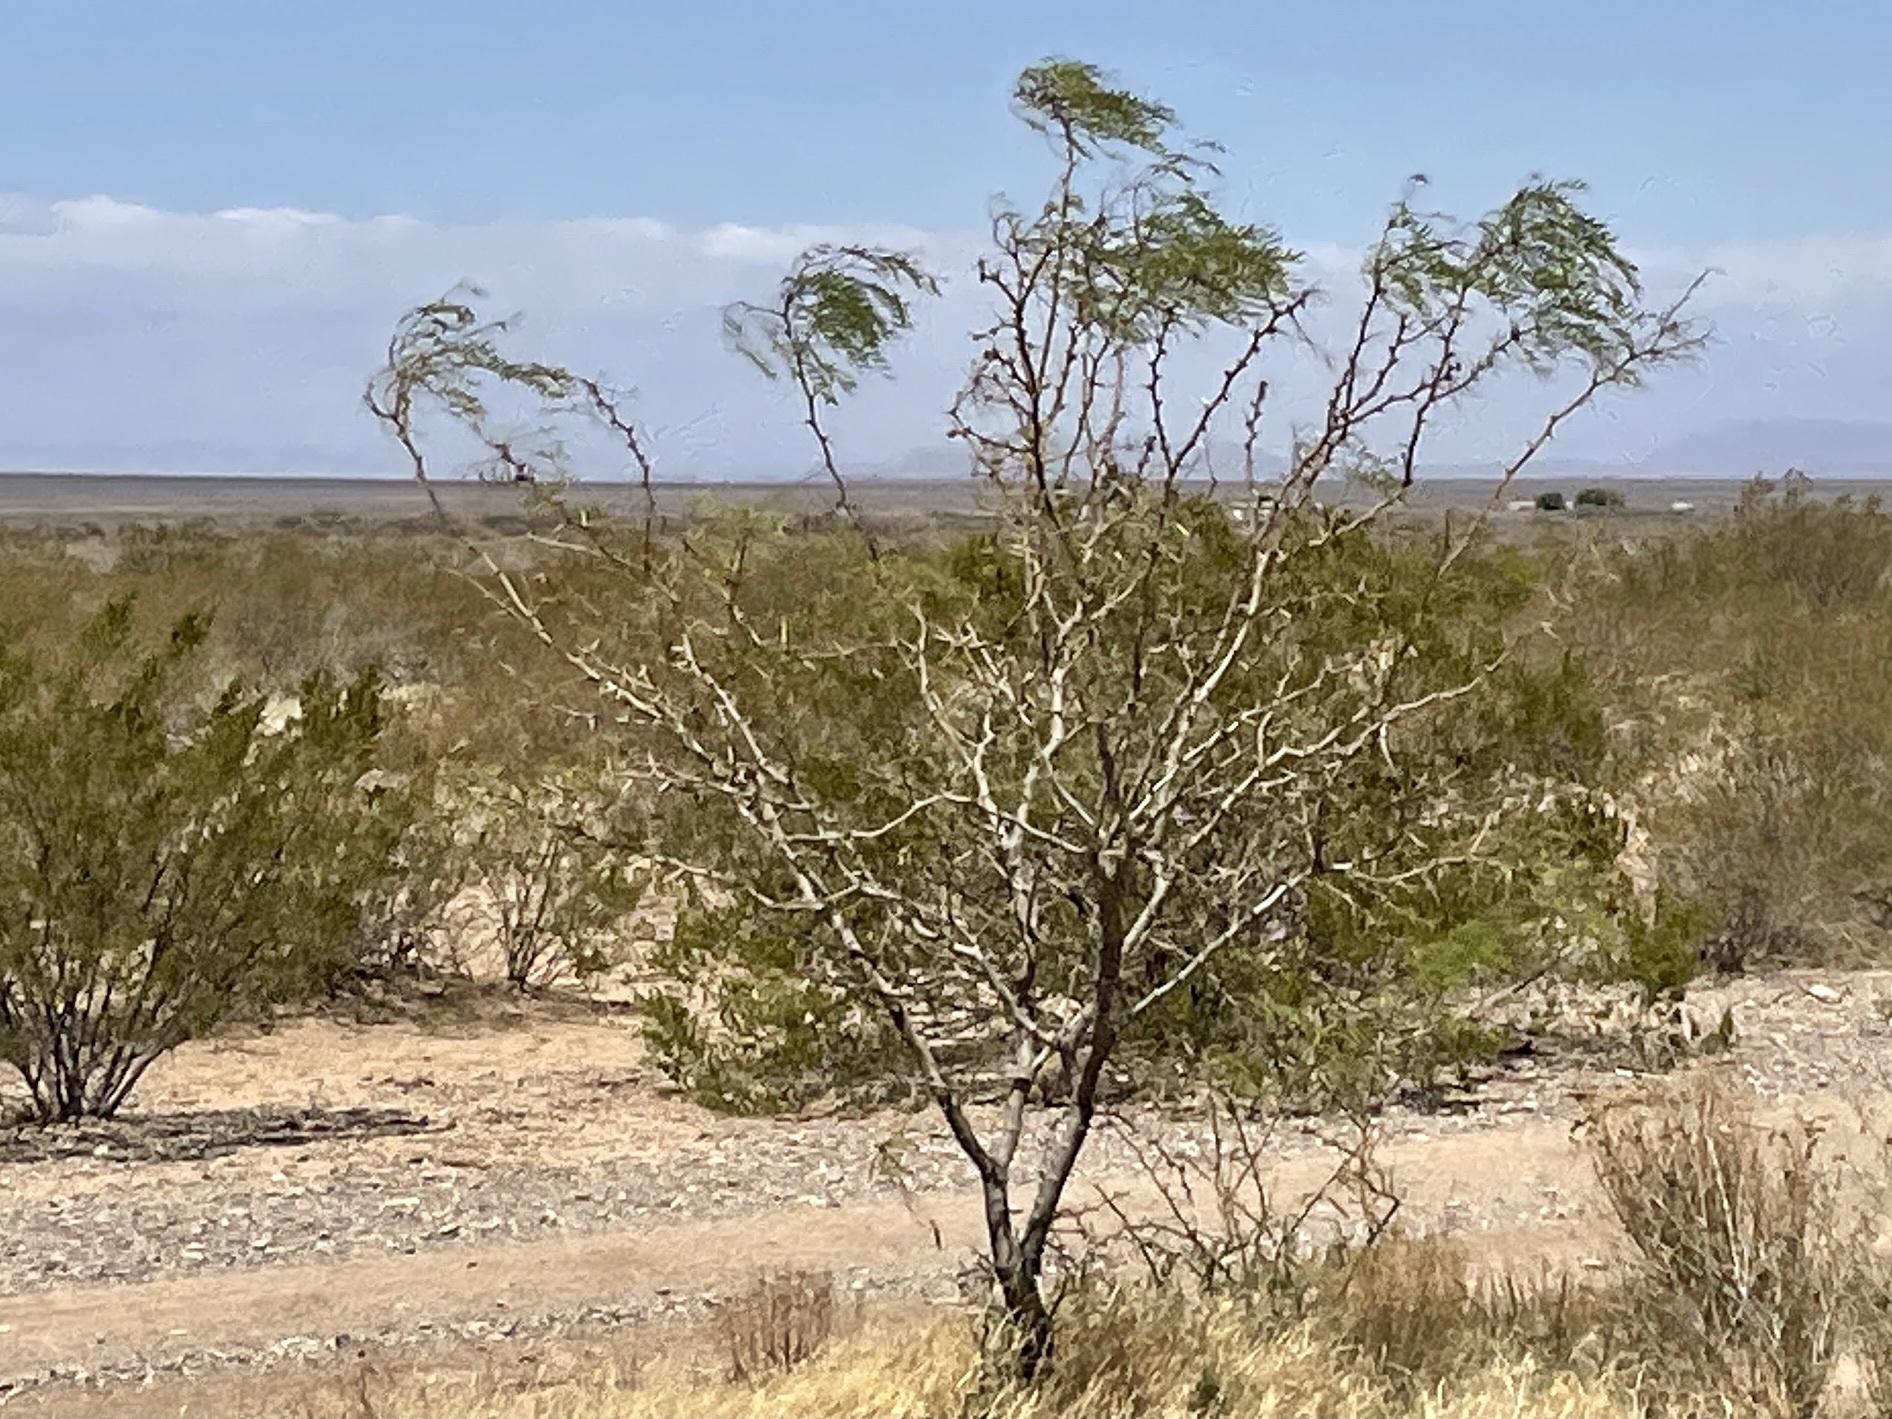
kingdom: Plantae
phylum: Tracheophyta
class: Magnoliopsida
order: Fabales
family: Fabaceae
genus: Prosopis
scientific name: Prosopis glandulosa
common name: Honey mesquite
